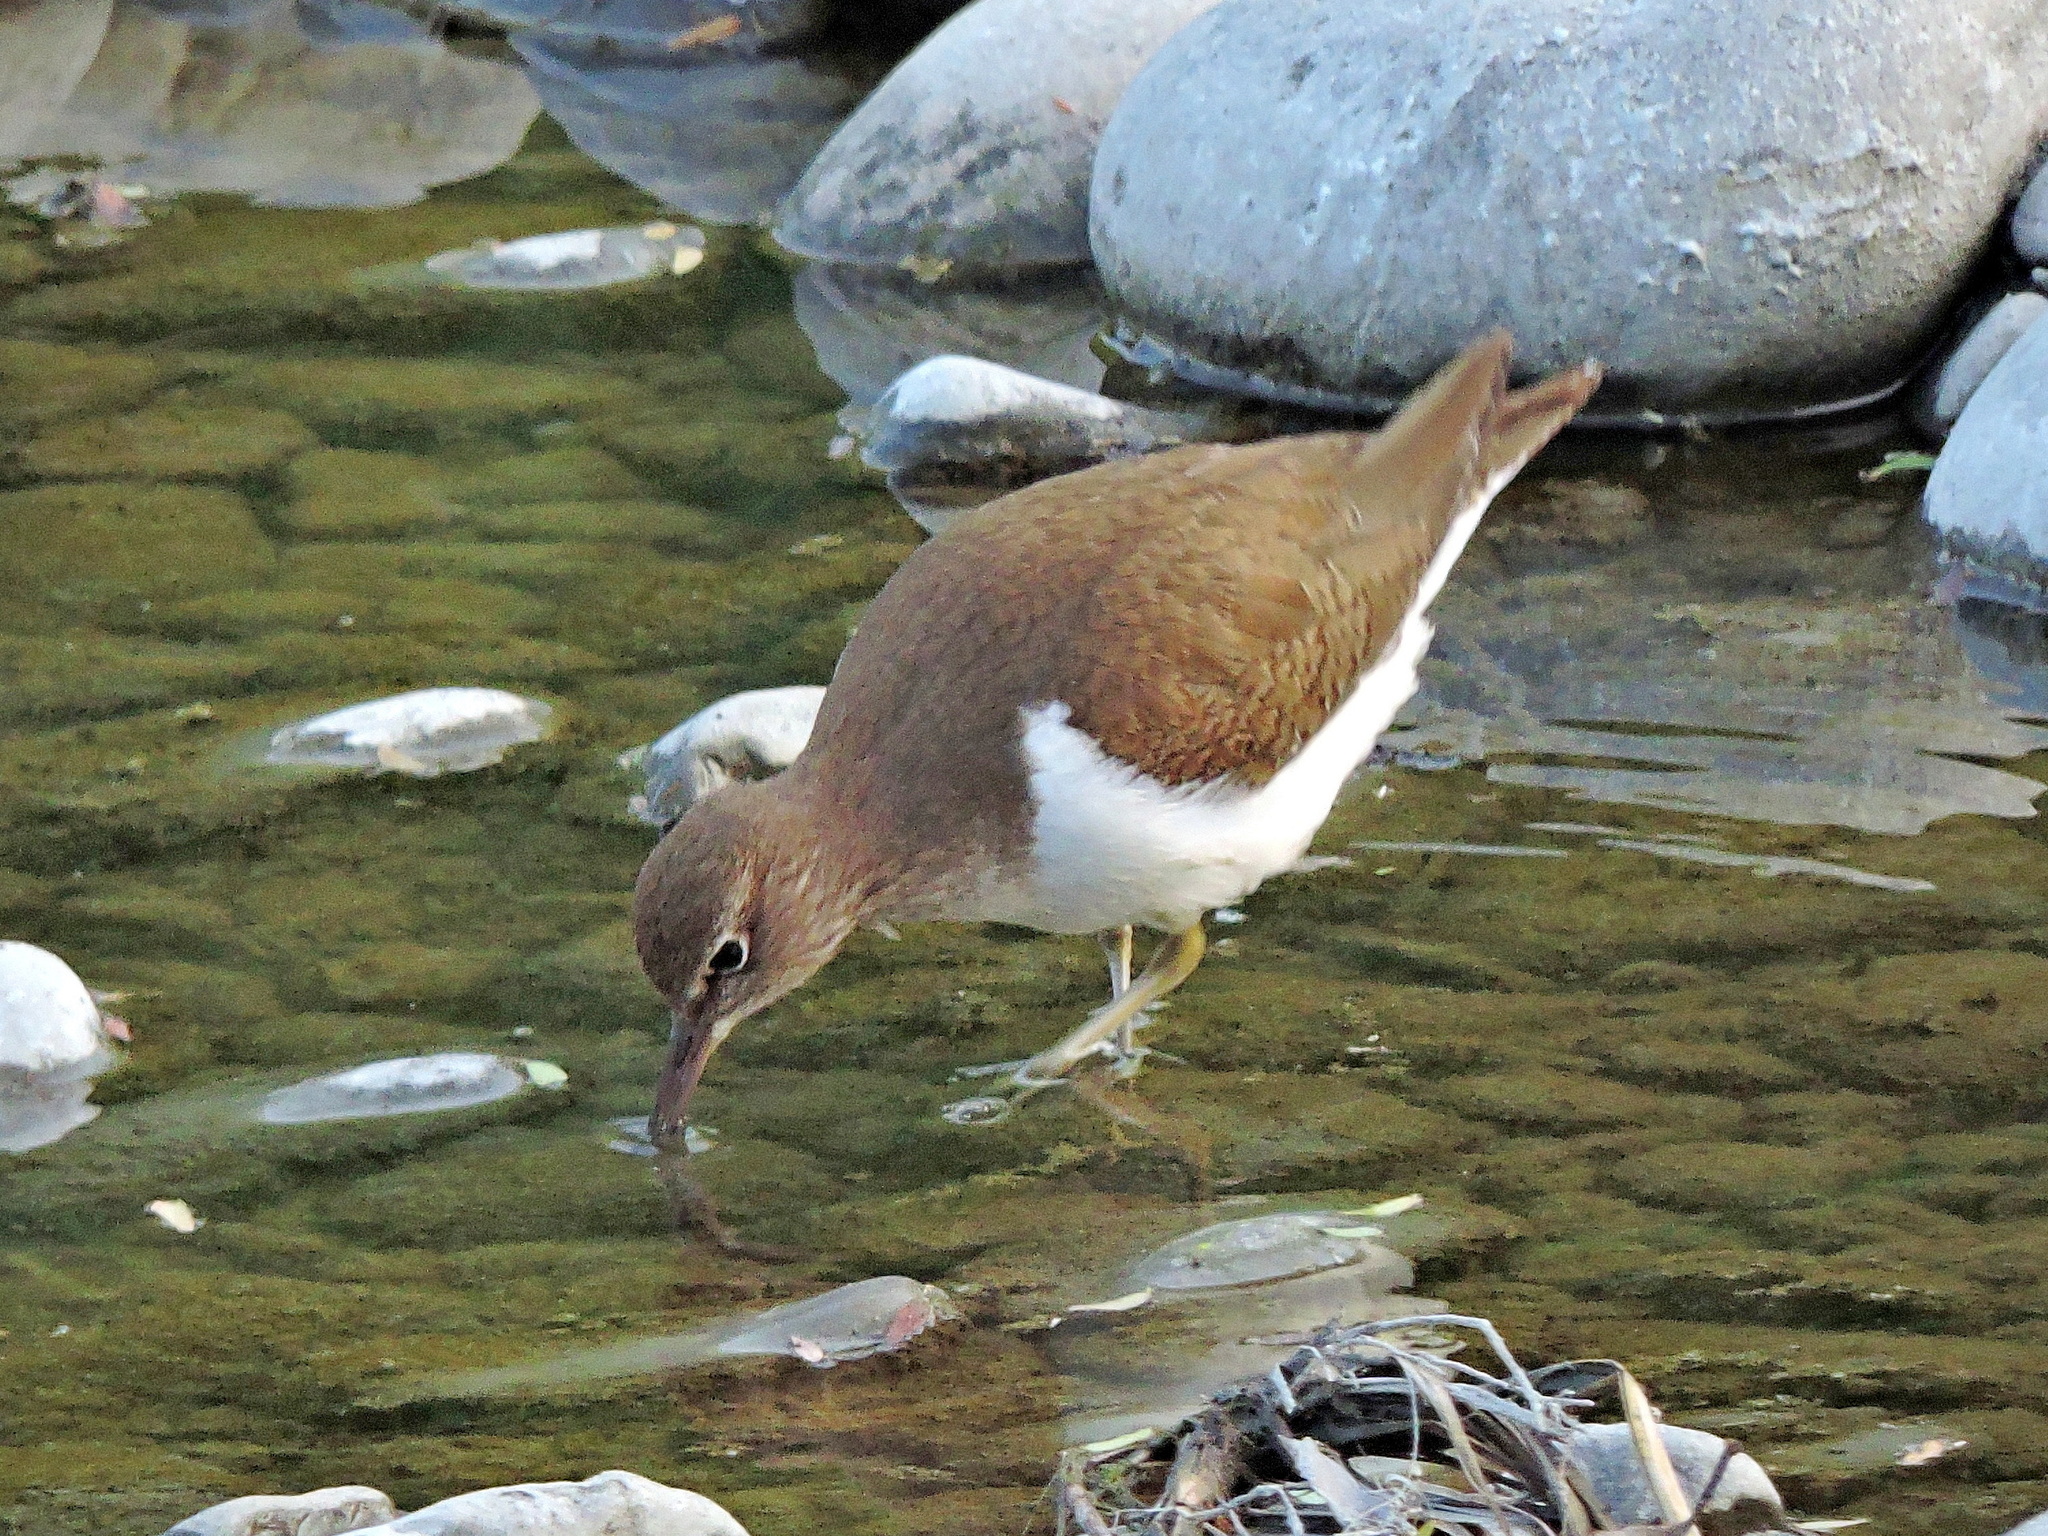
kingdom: Animalia
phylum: Chordata
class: Aves
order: Charadriiformes
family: Scolopacidae
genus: Actitis
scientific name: Actitis hypoleucos
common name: Common sandpiper
